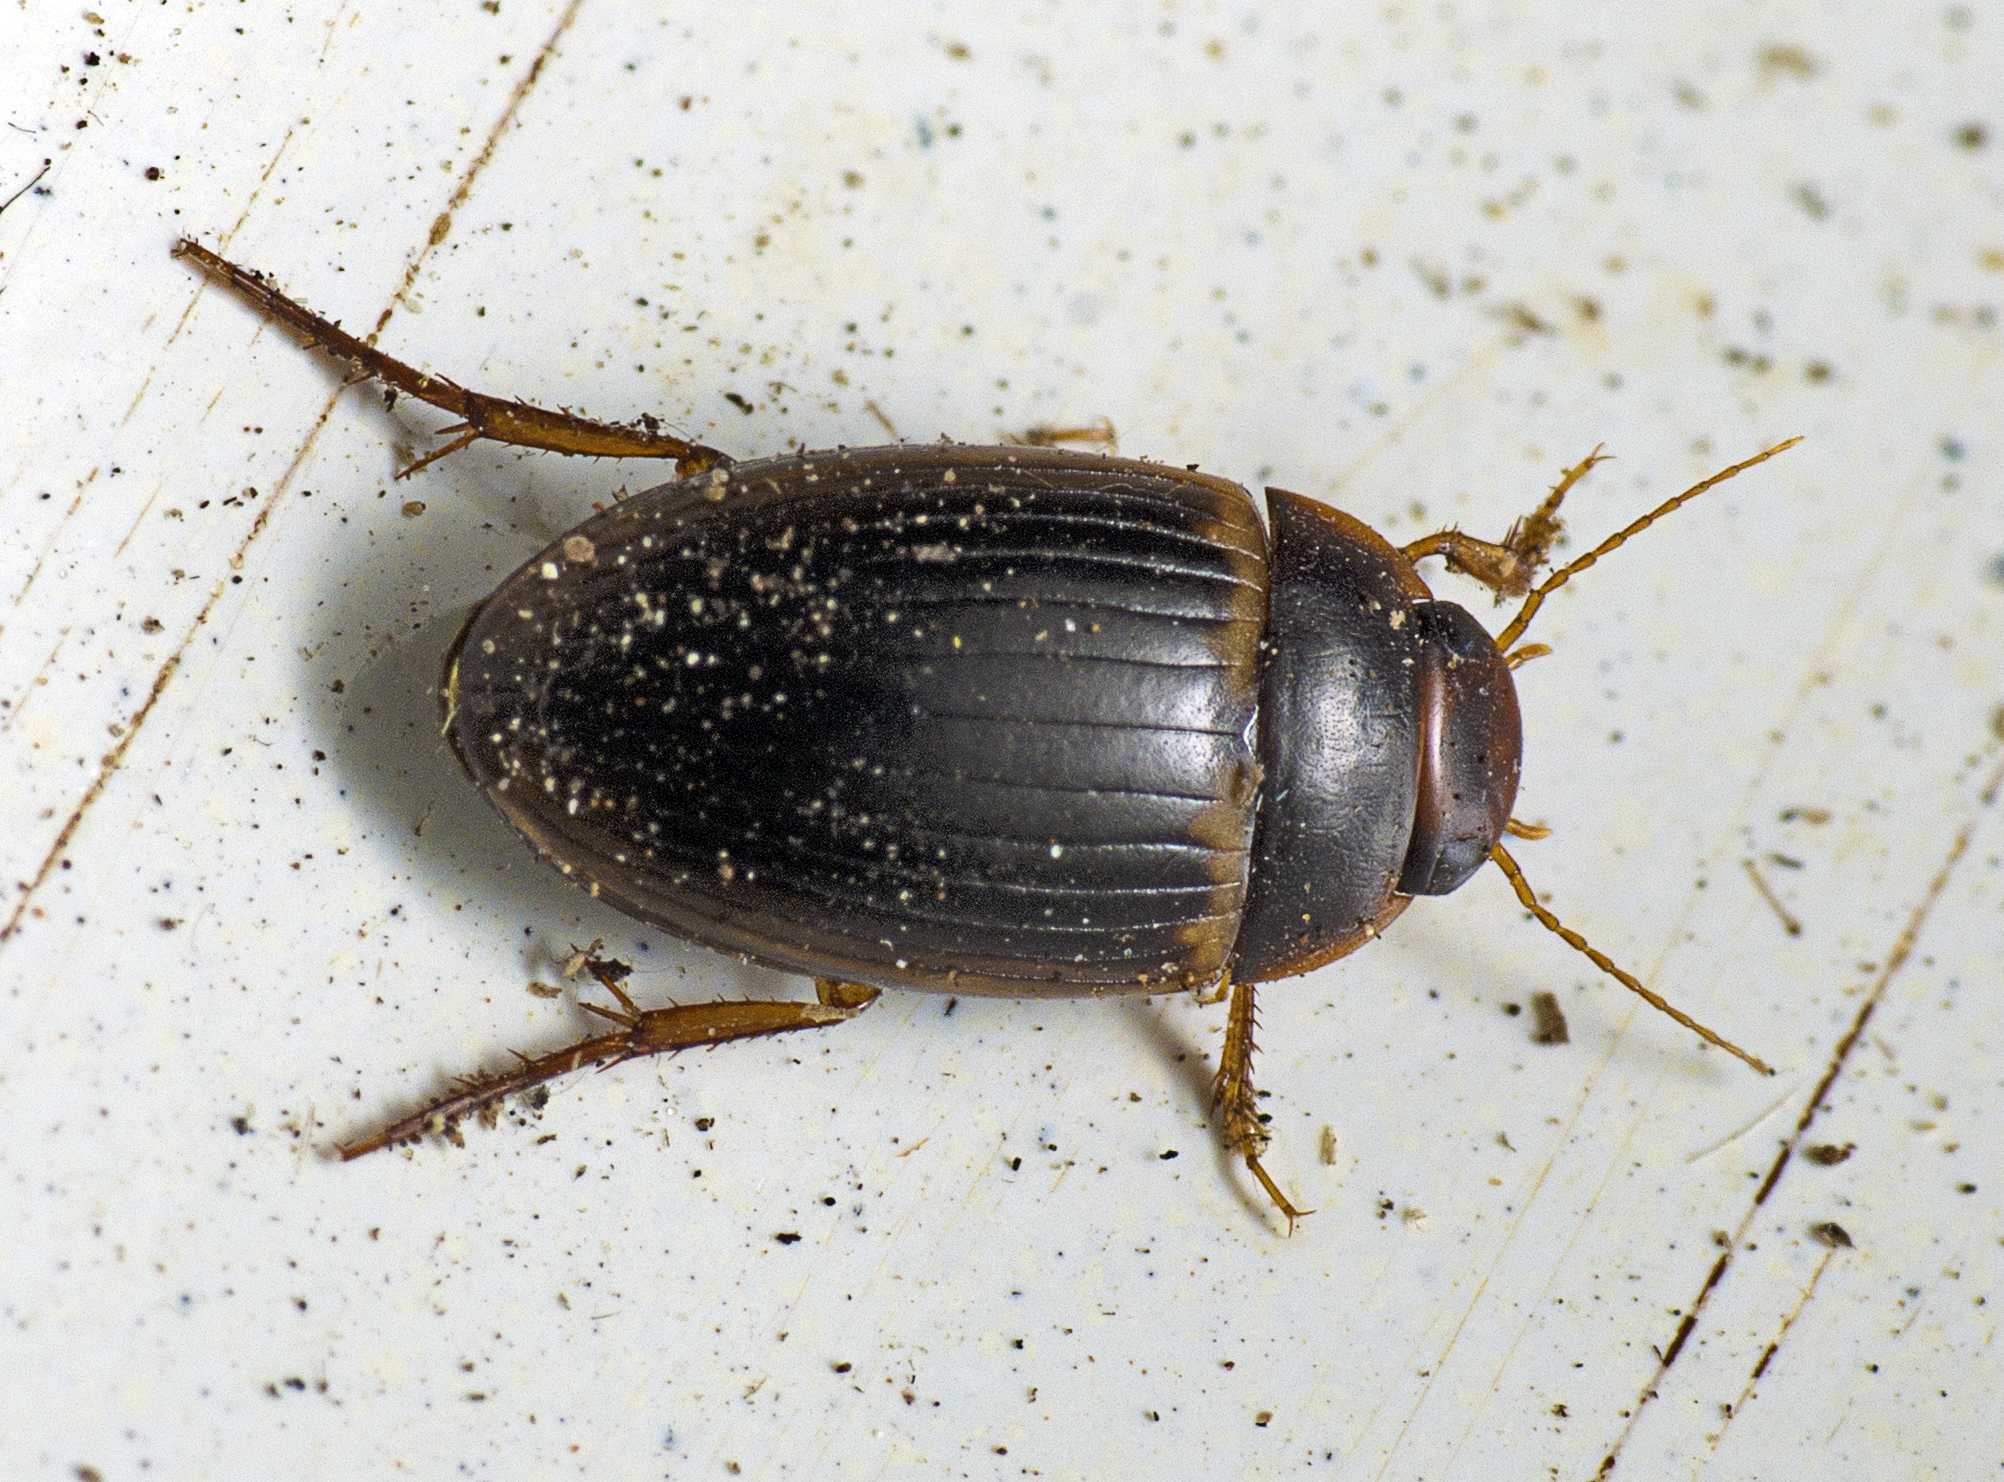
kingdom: Animalia
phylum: Arthropoda
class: Insecta
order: Coleoptera
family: Dytiscidae
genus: Copelatus
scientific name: Copelatus portior
